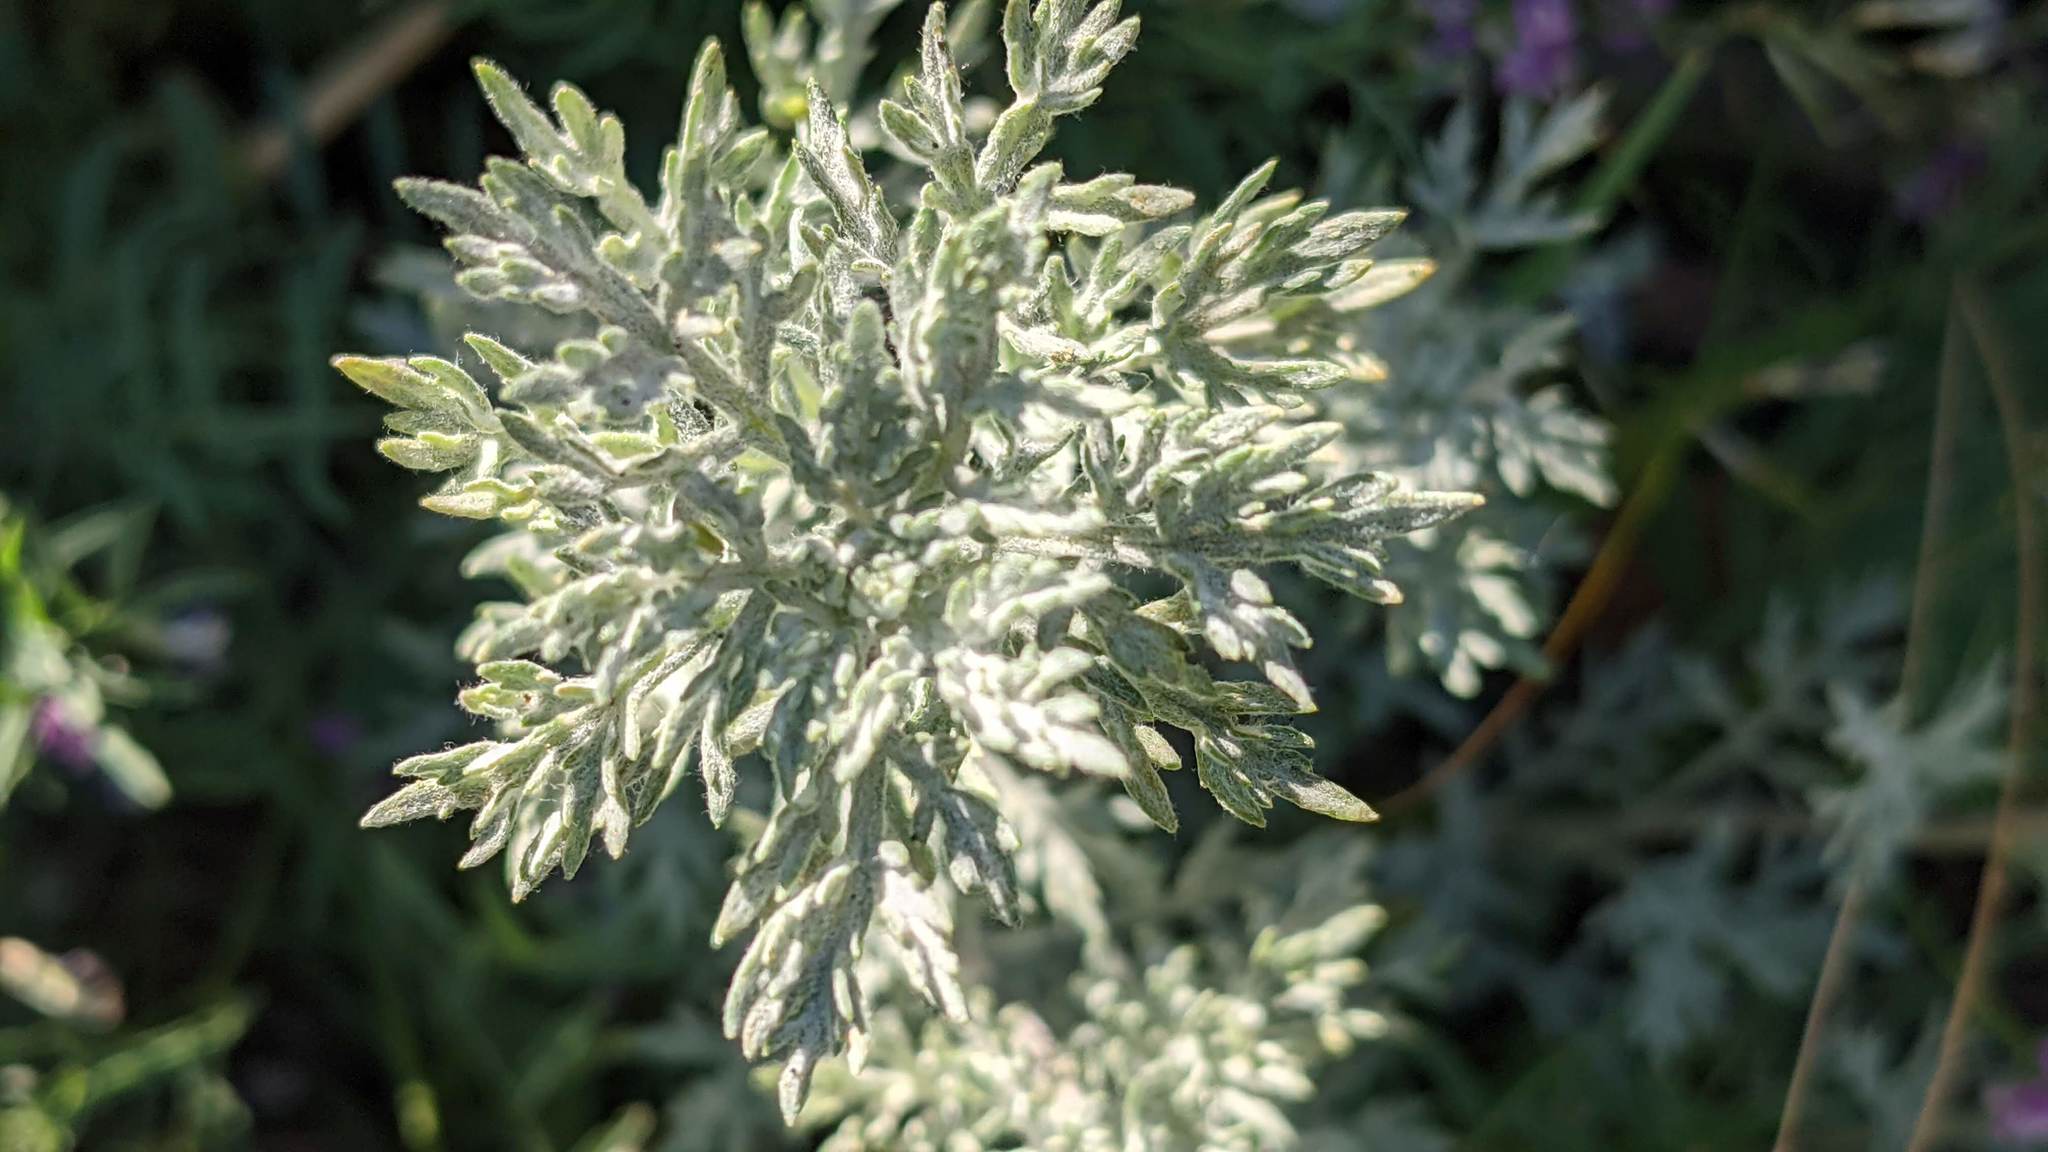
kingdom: Plantae
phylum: Tracheophyta
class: Magnoliopsida
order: Asterales
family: Asteraceae
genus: Artemisia
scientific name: Artemisia frigida
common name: Prairie sagewort
